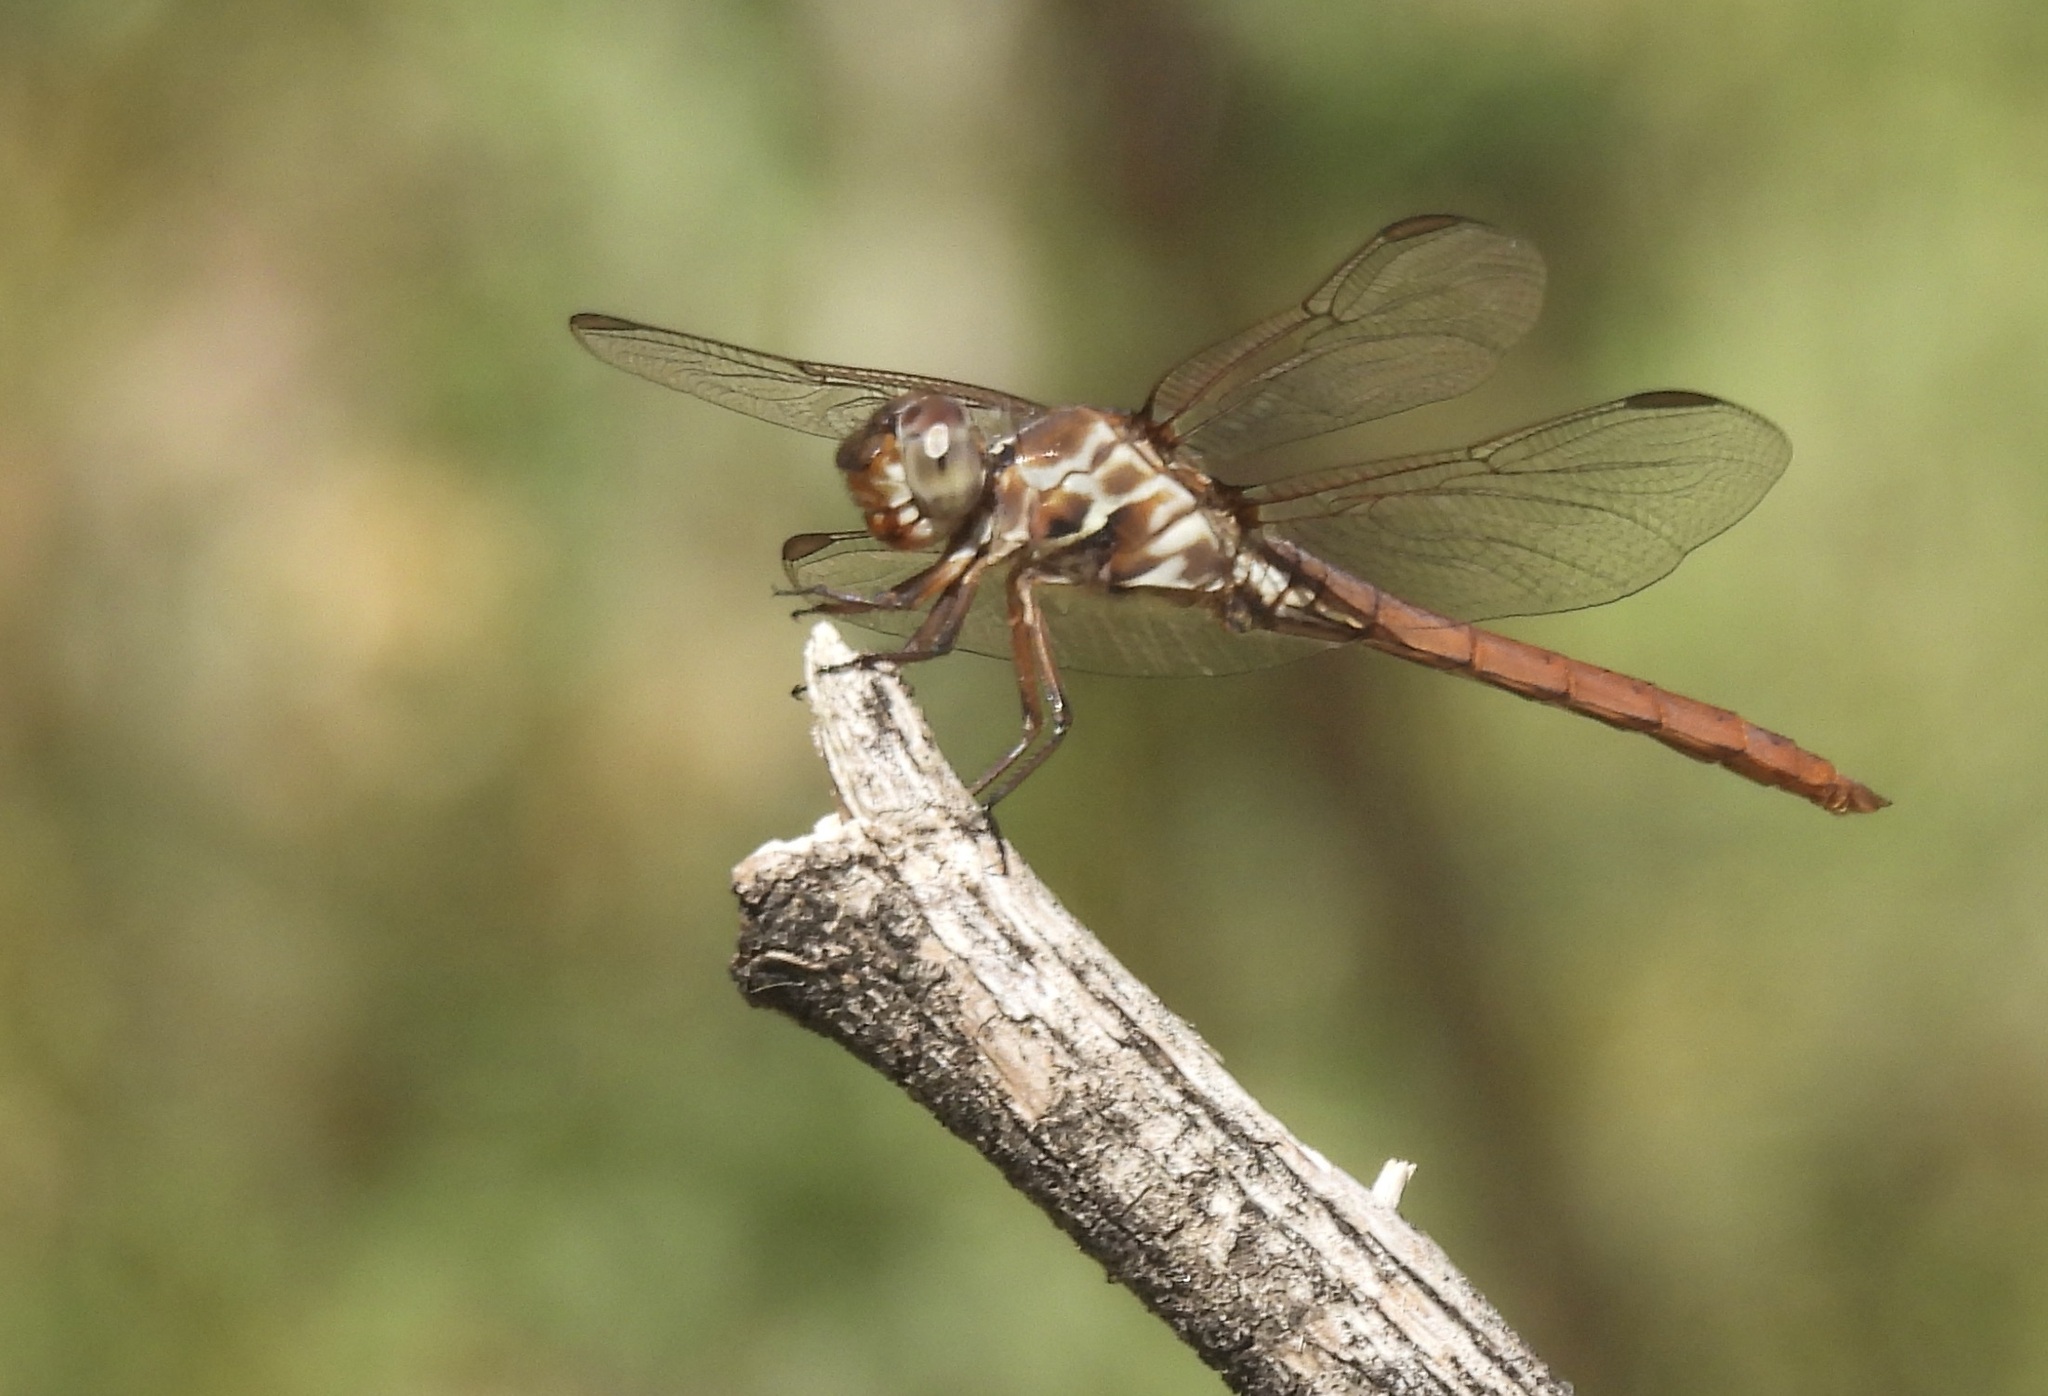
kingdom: Animalia
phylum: Arthropoda
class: Insecta
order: Odonata
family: Libellulidae
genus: Orthemis
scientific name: Orthemis ferruginea
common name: Roseate skimmer
